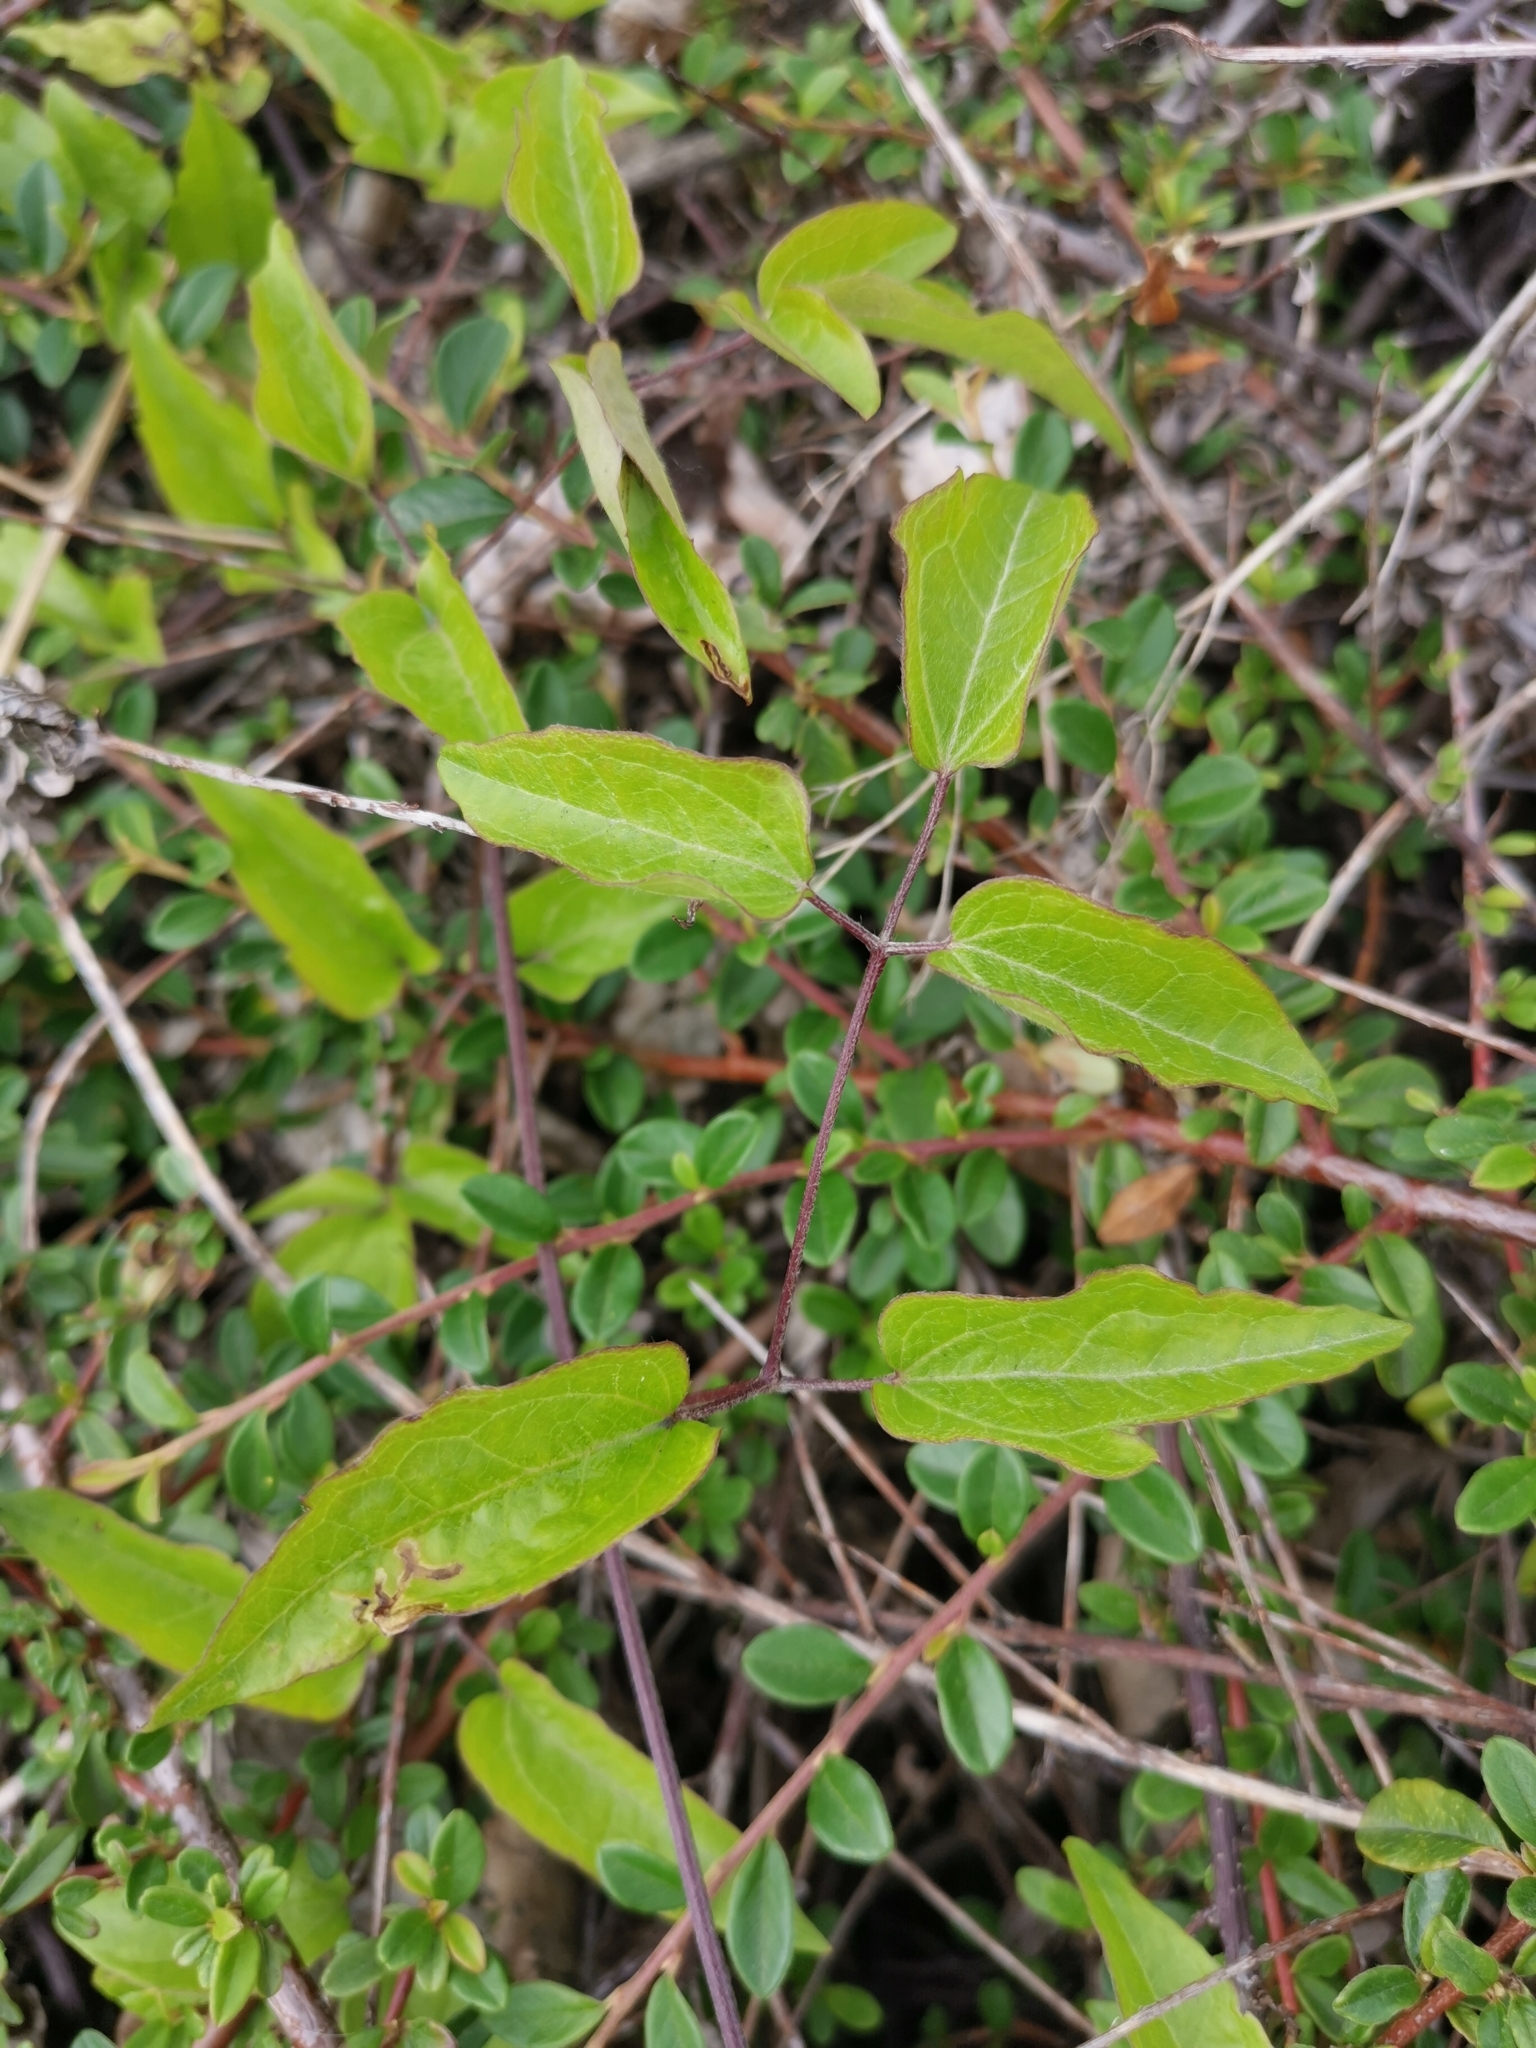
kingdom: Plantae
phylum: Tracheophyta
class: Magnoliopsida
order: Ranunculales
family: Ranunculaceae
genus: Clematis
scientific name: Clematis vitalba
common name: Evergreen clematis
